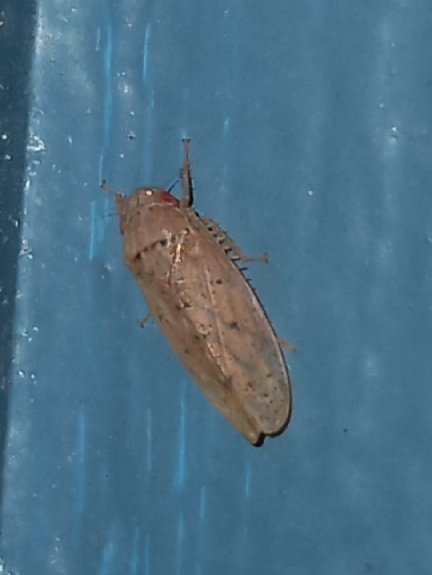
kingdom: Animalia
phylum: Arthropoda
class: Insecta
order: Hemiptera
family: Cicadellidae
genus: Ponana
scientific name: Ponana puncticollis
